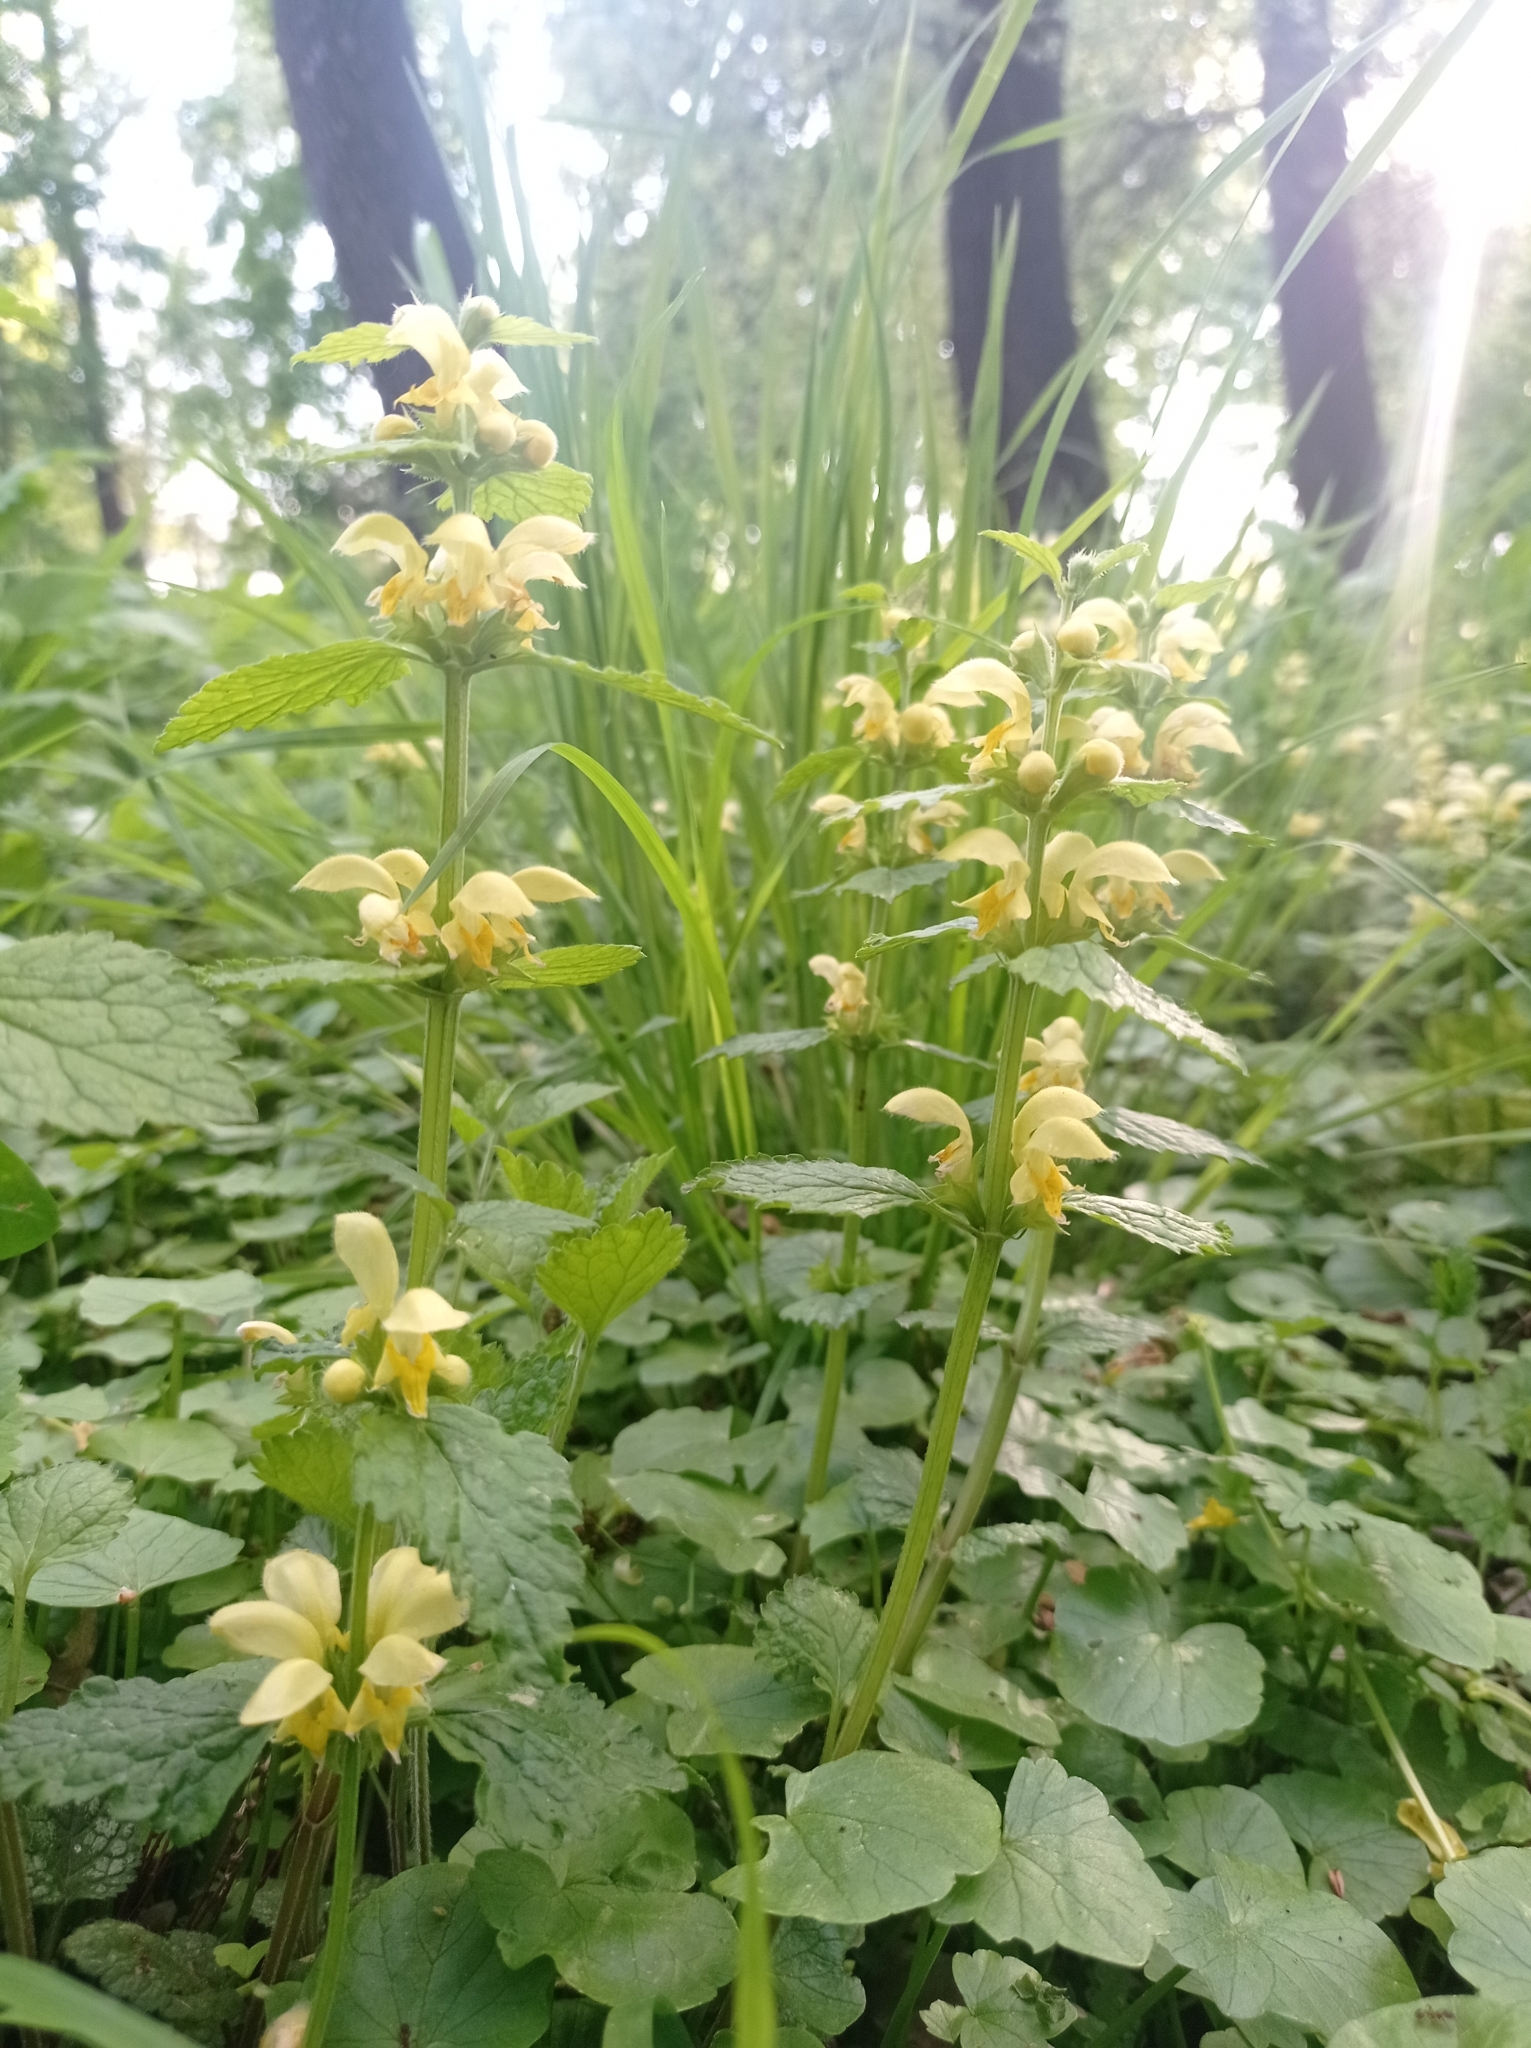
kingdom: Plantae
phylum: Tracheophyta
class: Magnoliopsida
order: Lamiales
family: Lamiaceae
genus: Lamium
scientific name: Lamium galeobdolon
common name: Yellow archangel
